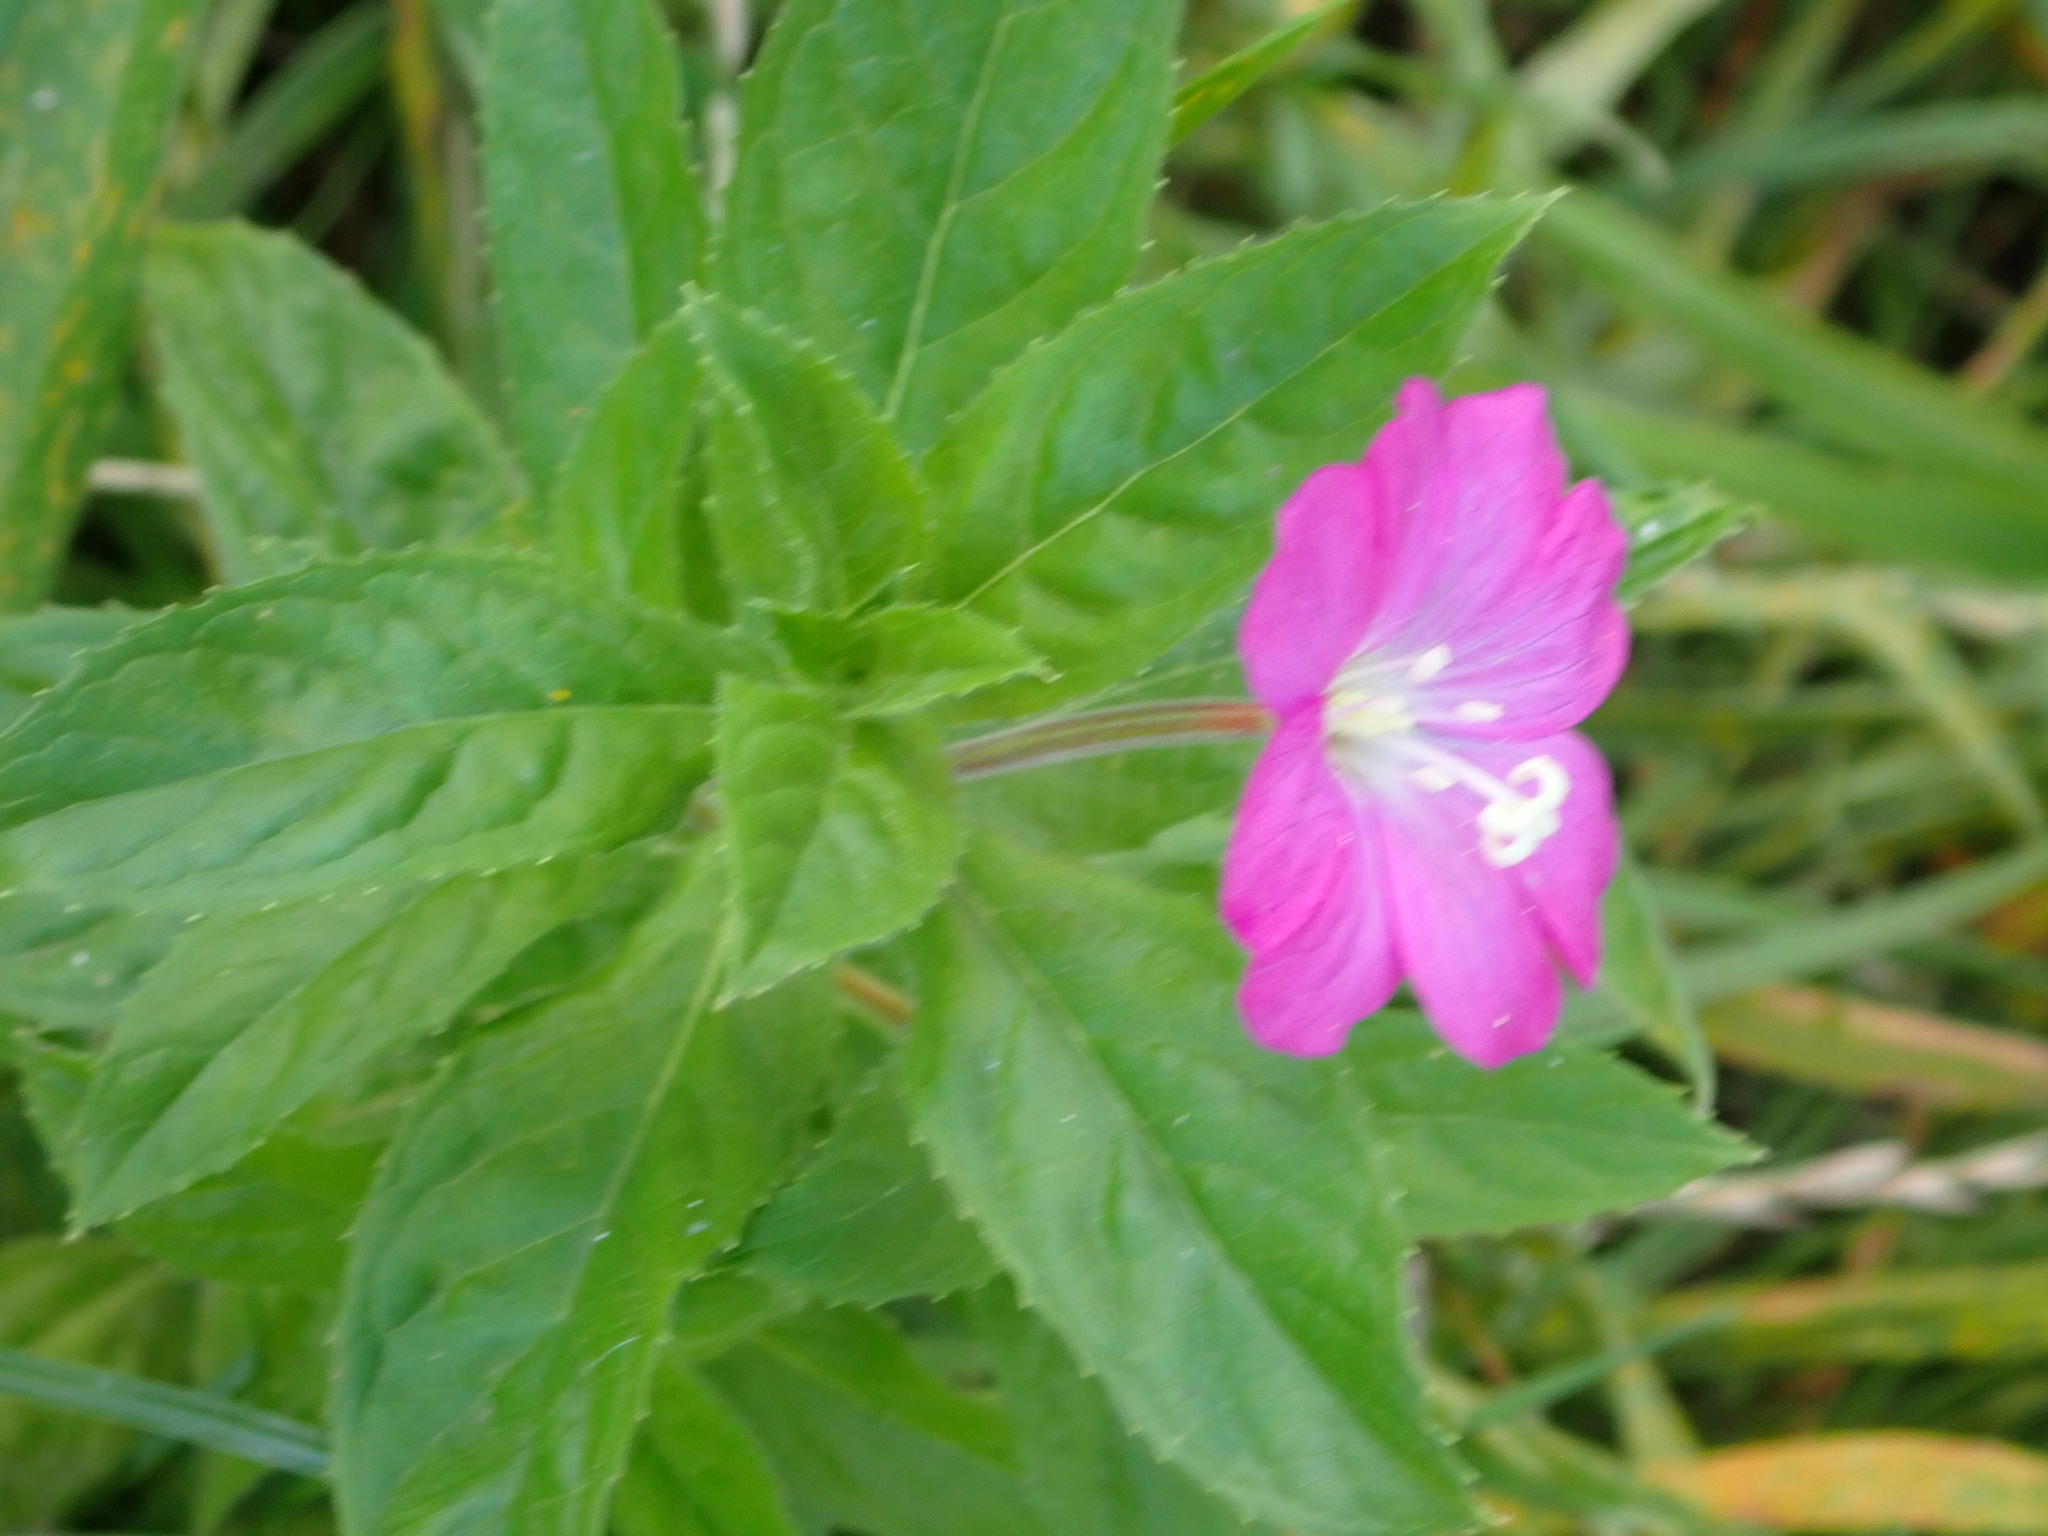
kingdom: Plantae
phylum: Tracheophyta
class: Magnoliopsida
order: Myrtales
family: Onagraceae
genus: Epilobium
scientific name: Epilobium hirsutum
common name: Great willowherb
